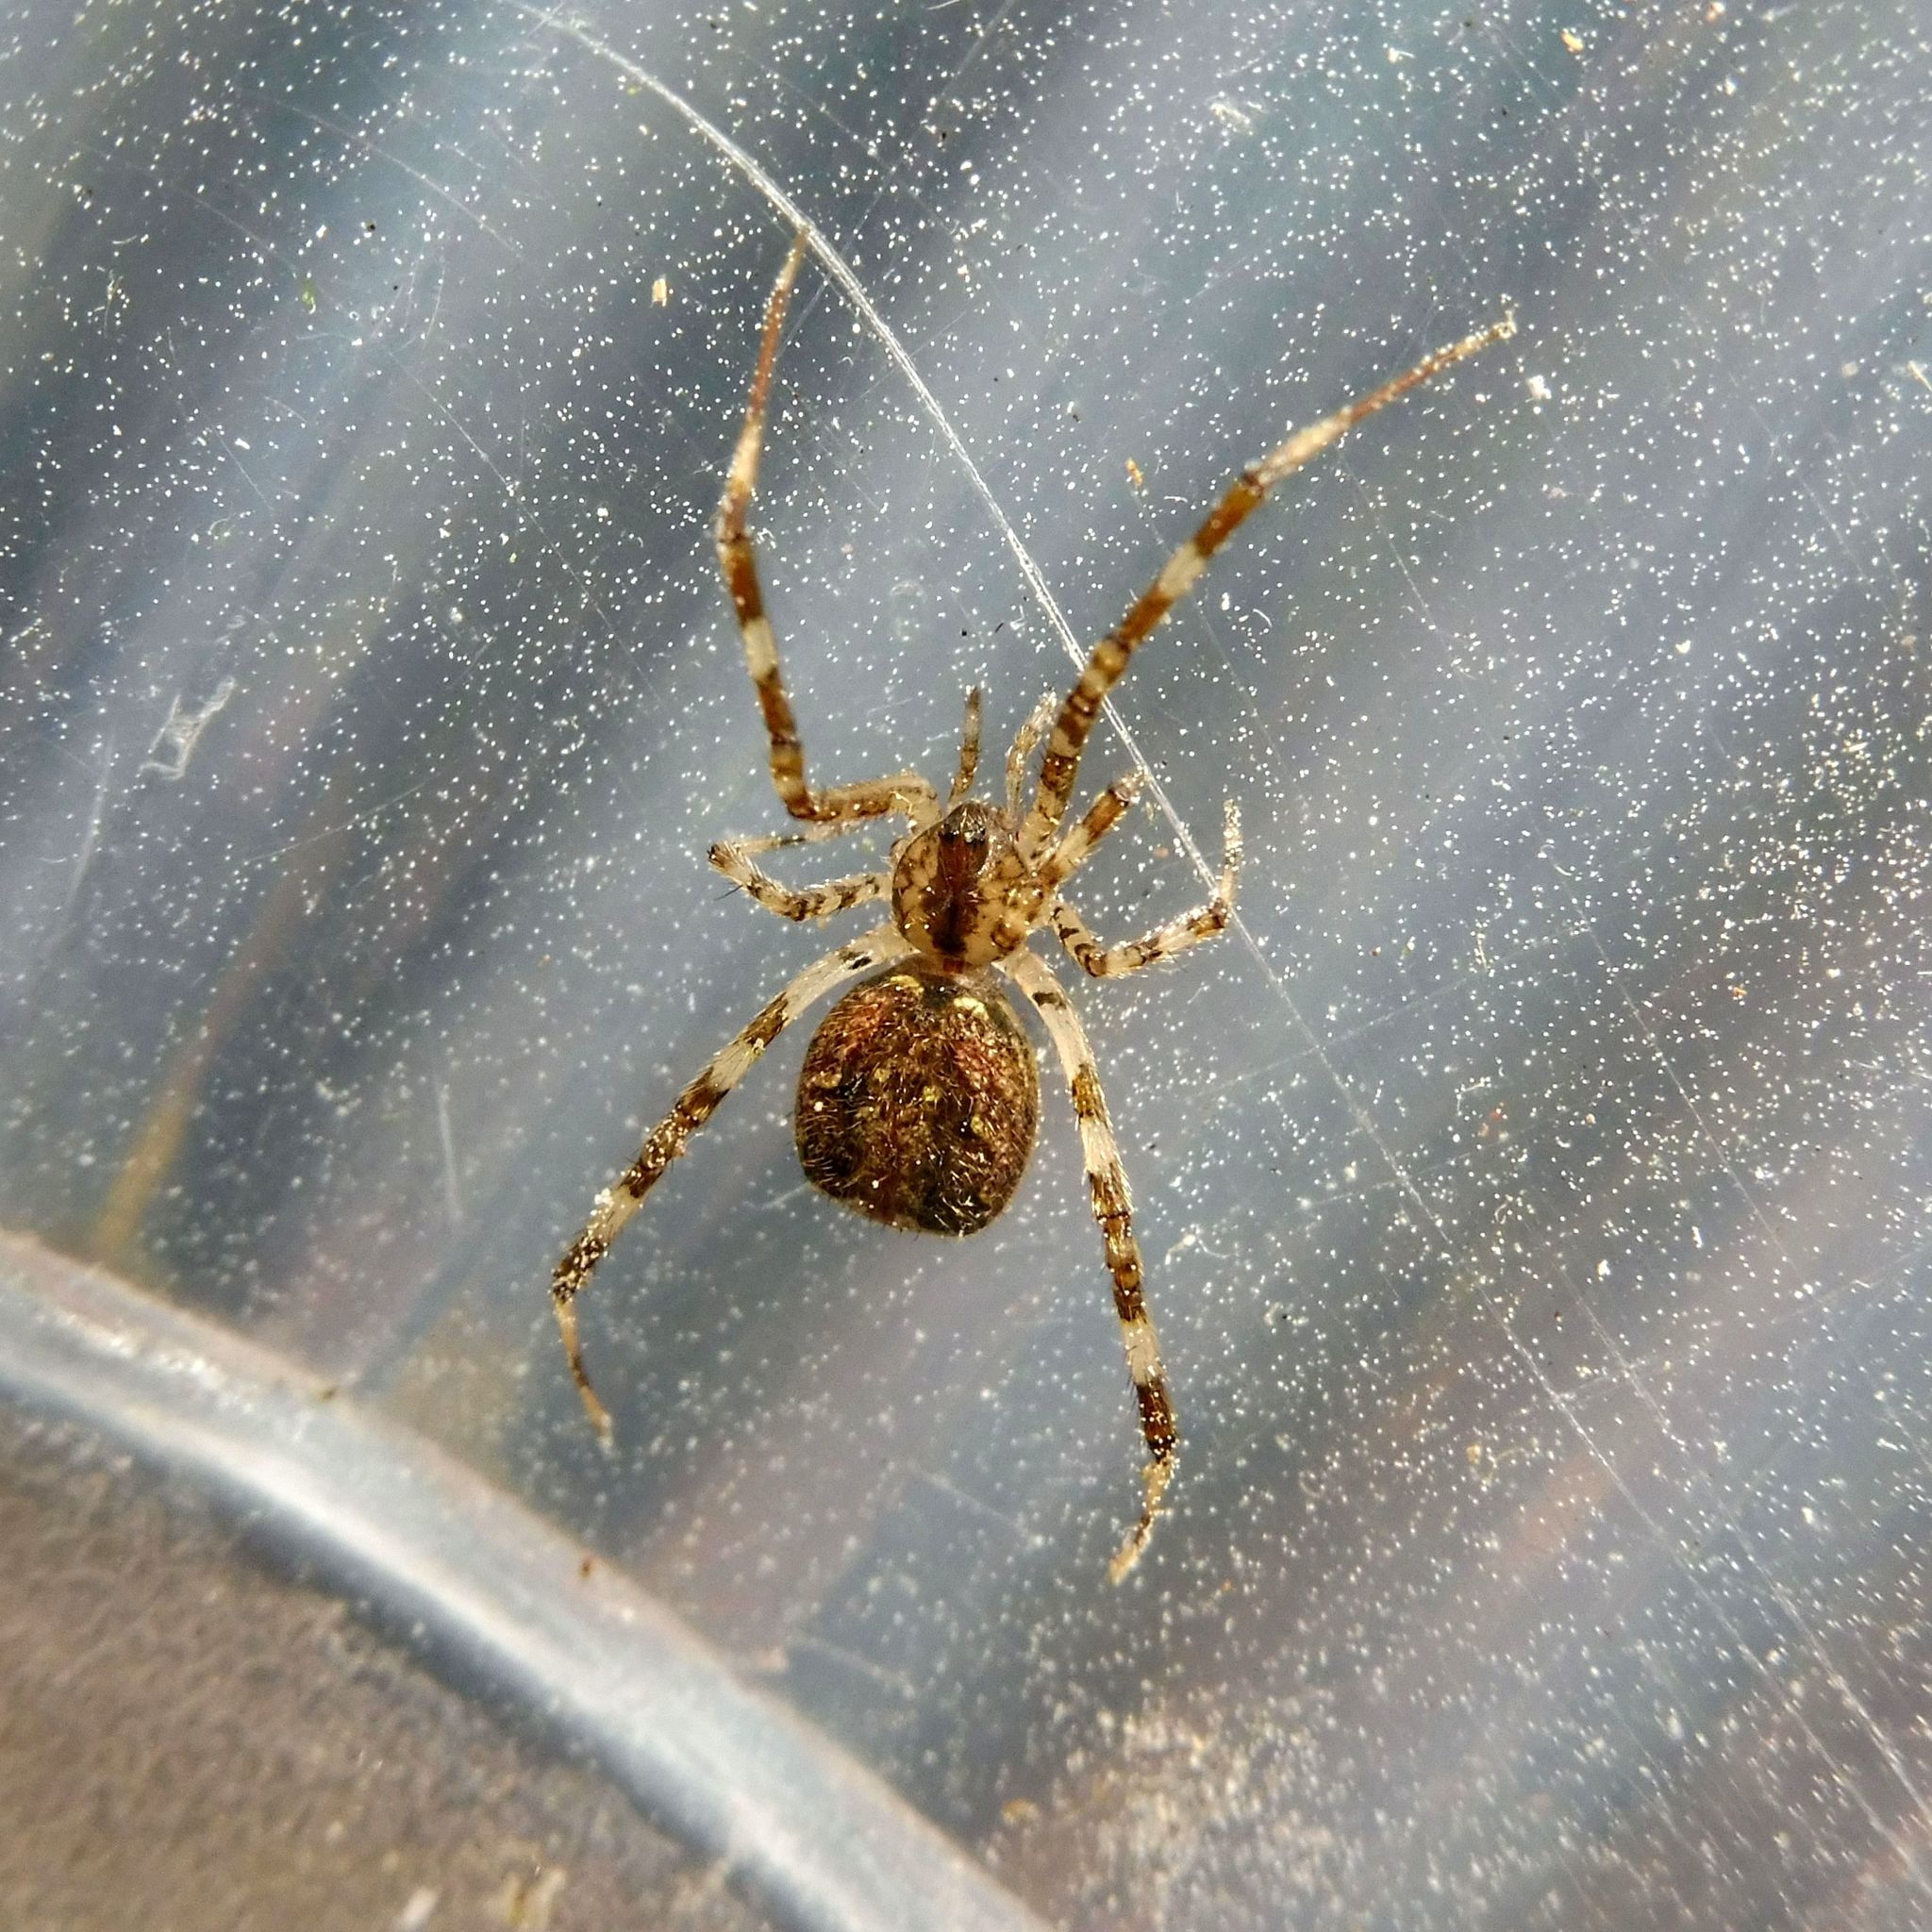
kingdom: Animalia
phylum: Arthropoda
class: Arachnida
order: Araneae
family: Theridiidae
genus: Episinus
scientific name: Episinus maculipes
